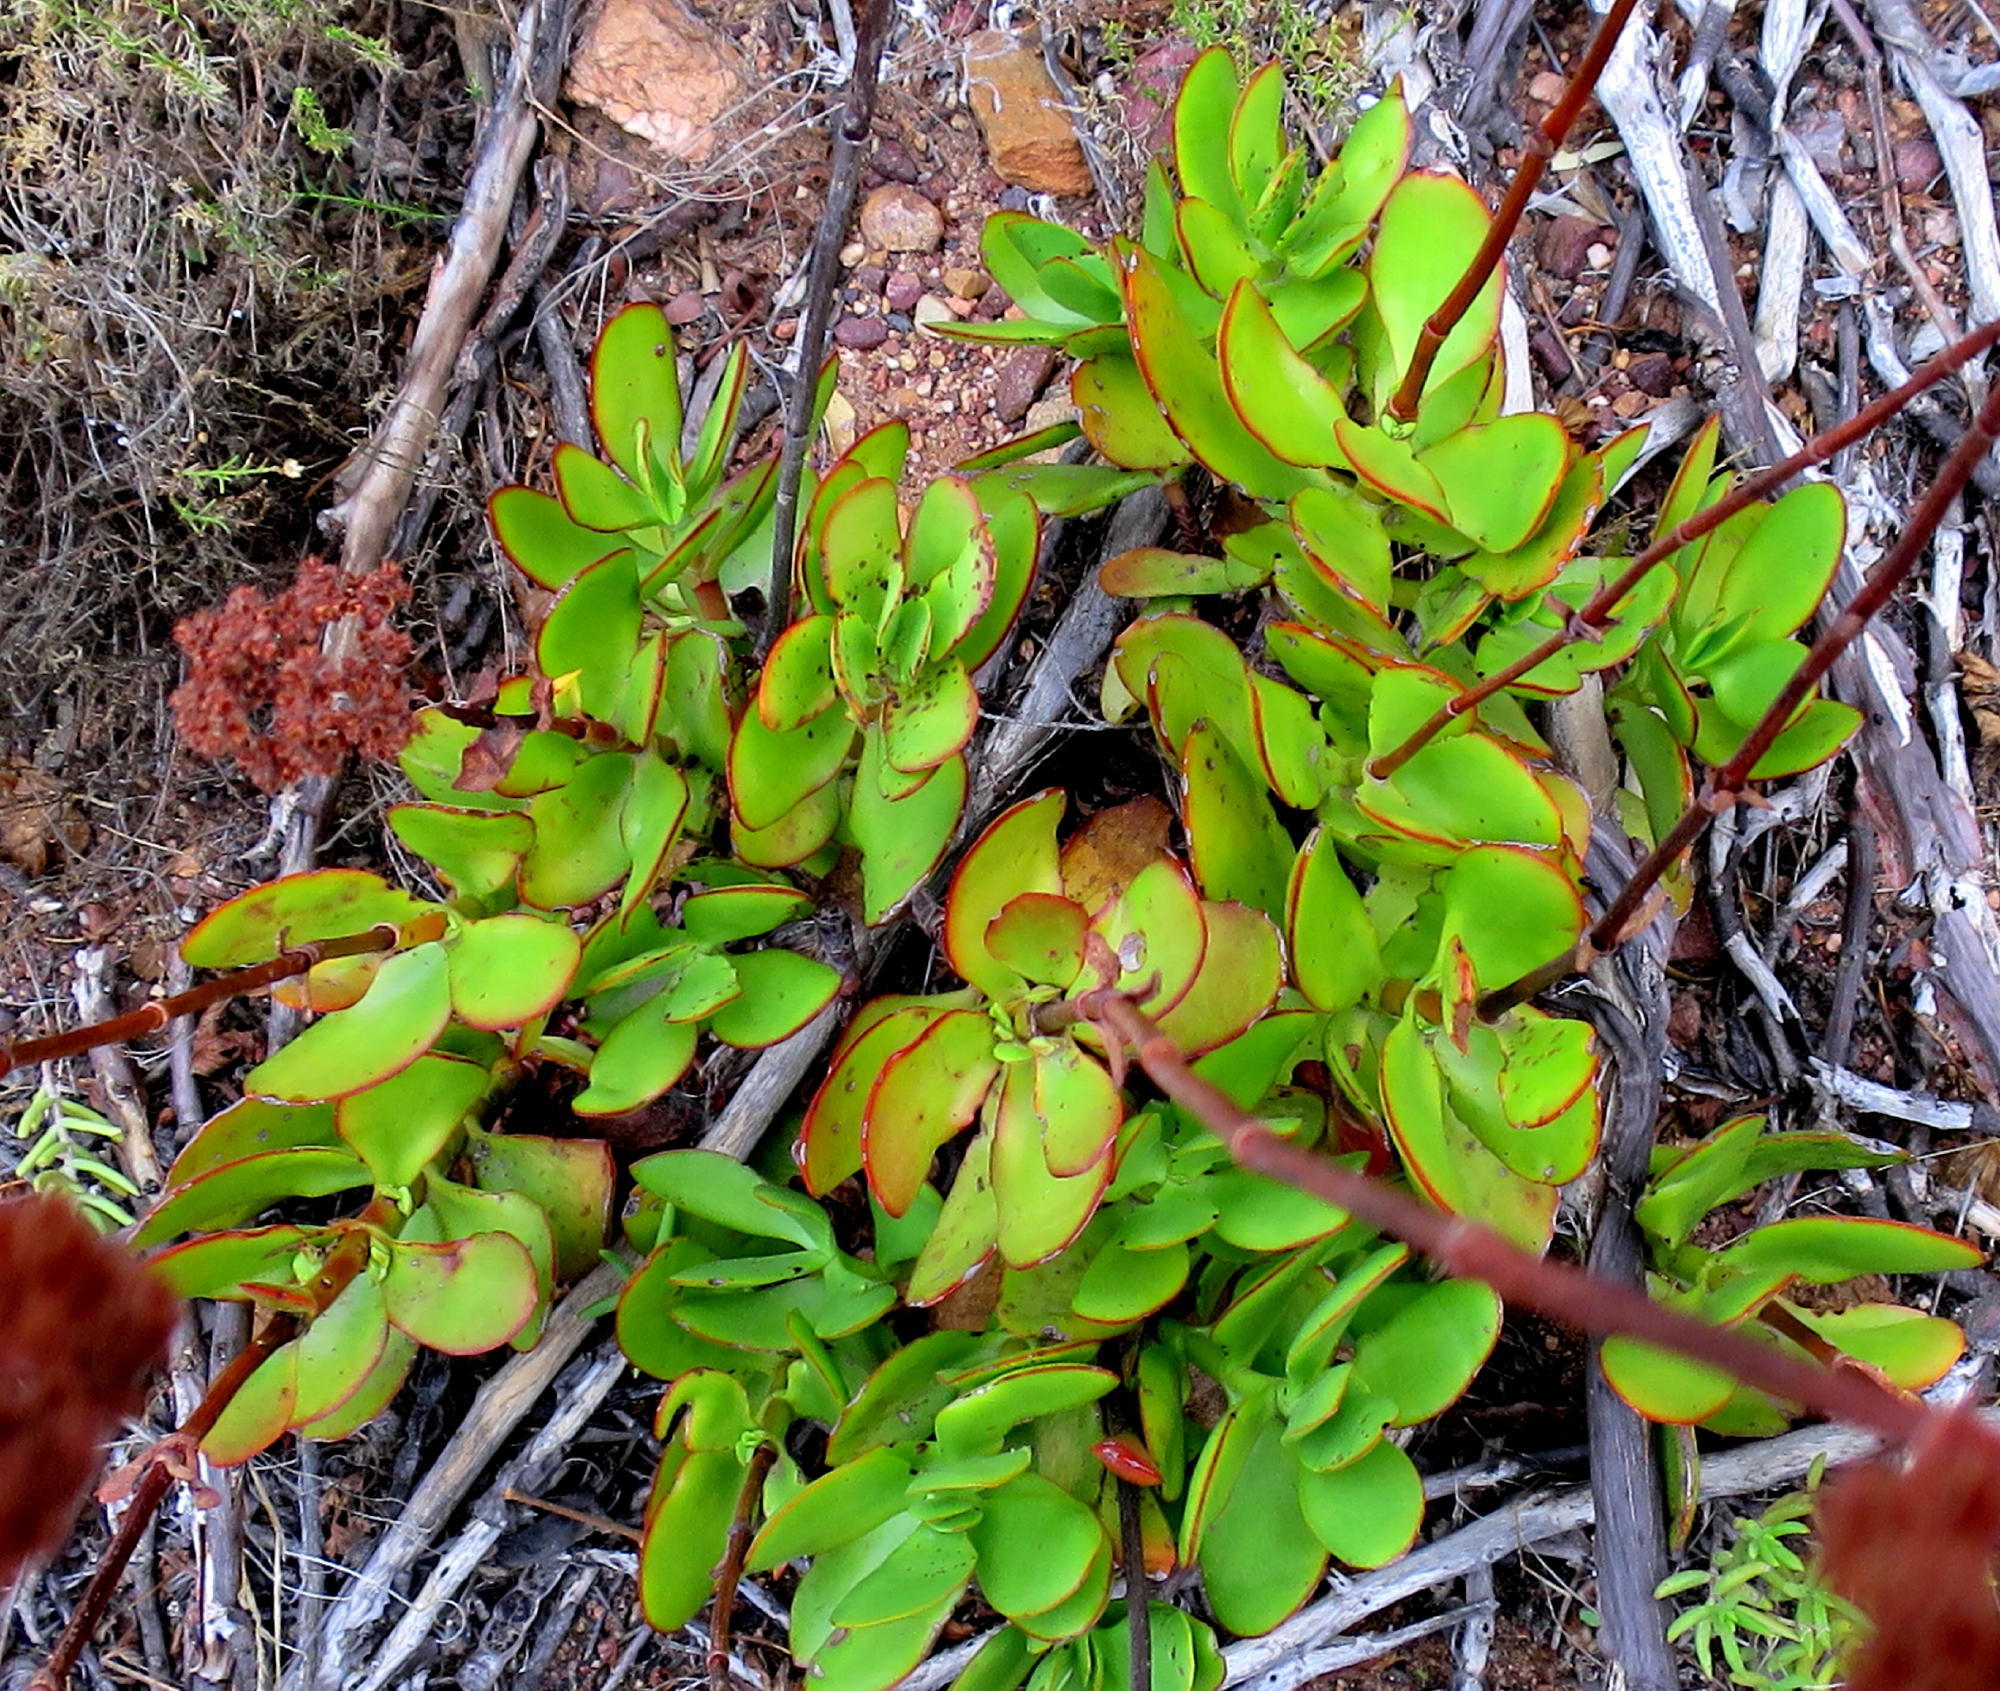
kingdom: Plantae
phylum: Tracheophyta
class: Magnoliopsida
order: Saxifragales
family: Crassulaceae
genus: Crassula
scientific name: Crassula cultrata
